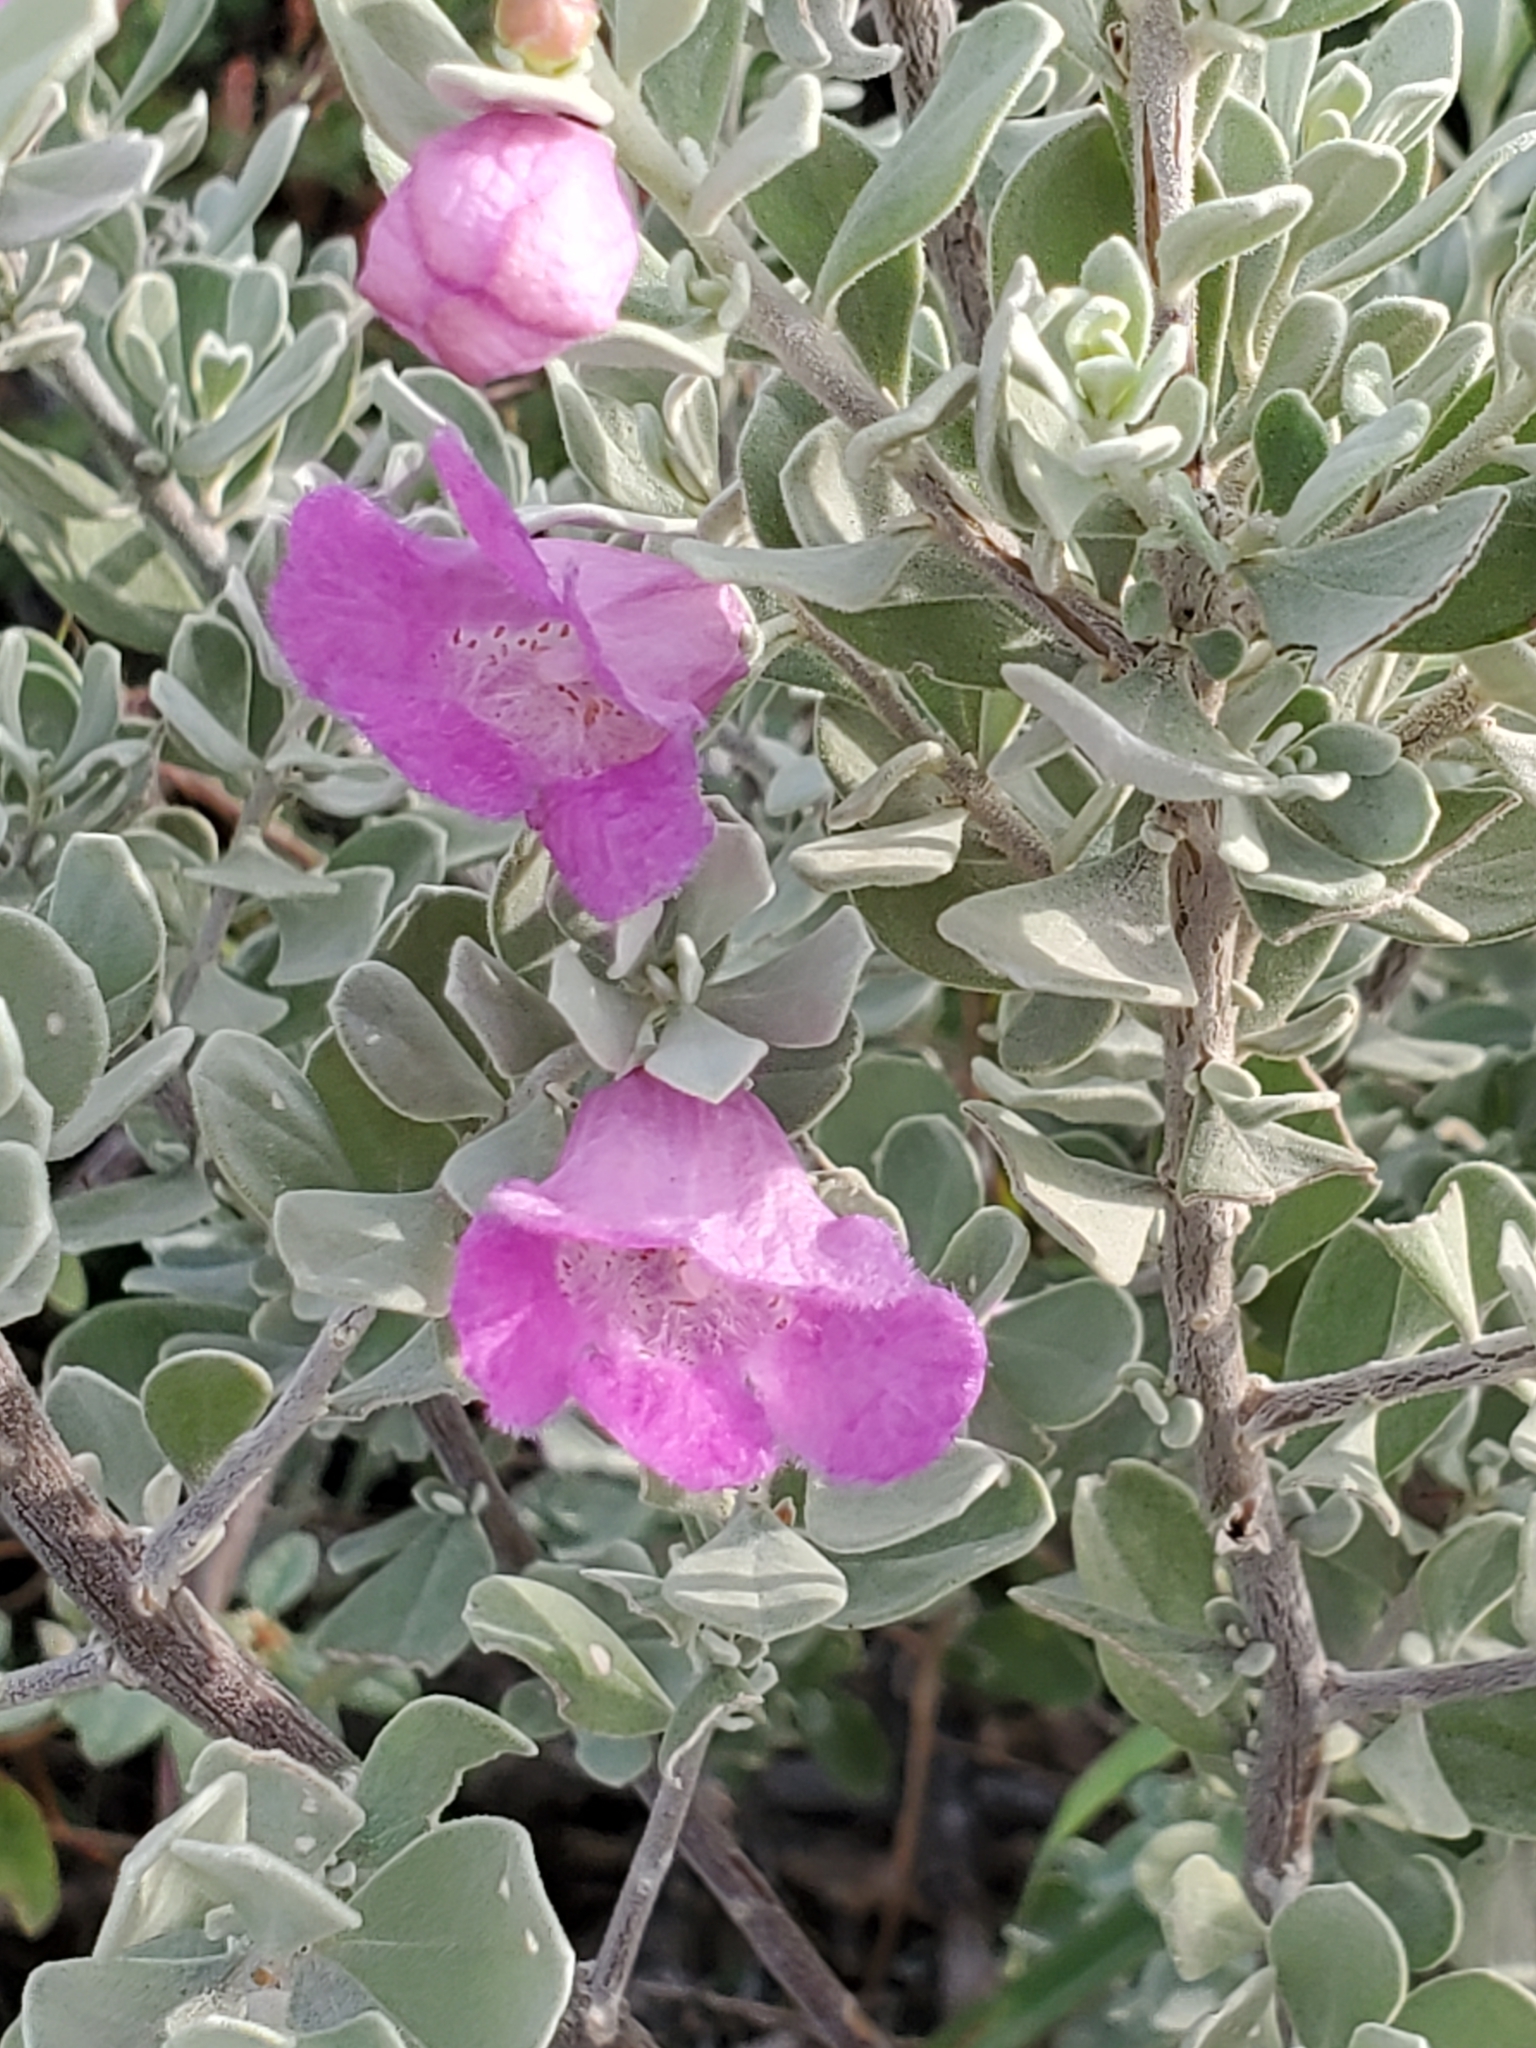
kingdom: Plantae
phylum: Tracheophyta
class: Magnoliopsida
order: Lamiales
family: Scrophulariaceae
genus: Leucophyllum
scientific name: Leucophyllum frutescens
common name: Texas silverleaf
